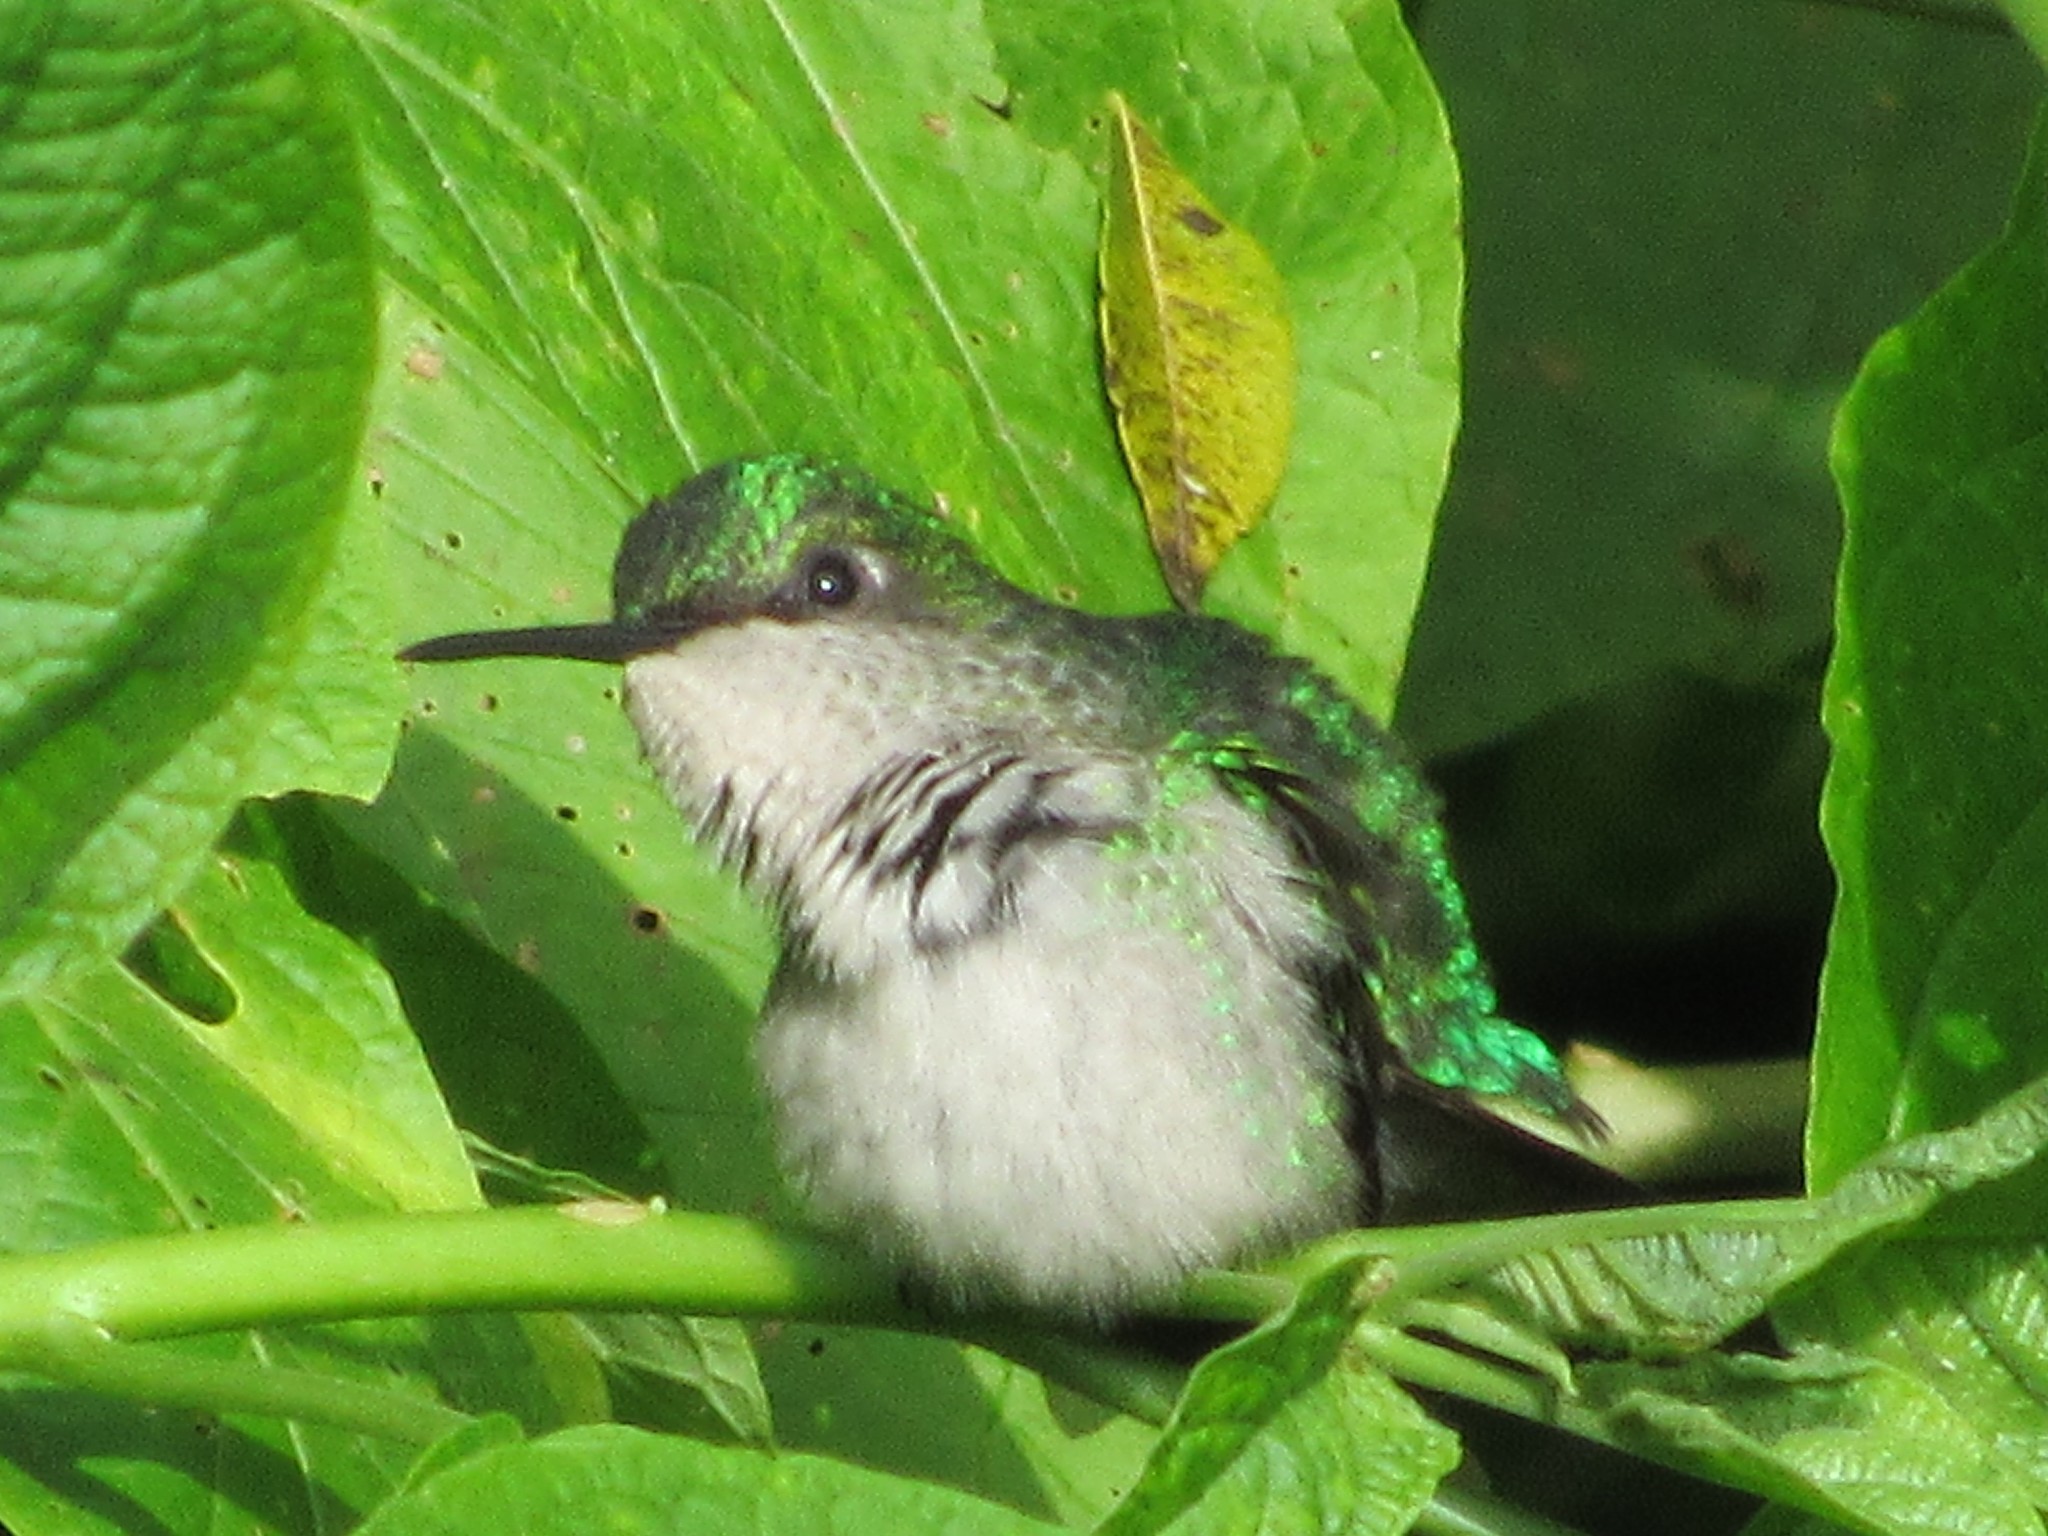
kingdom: Animalia
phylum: Chordata
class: Aves
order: Apodiformes
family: Trochilidae
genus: Thalurania
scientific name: Thalurania glaucopis
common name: Violet-capped woodnymph
